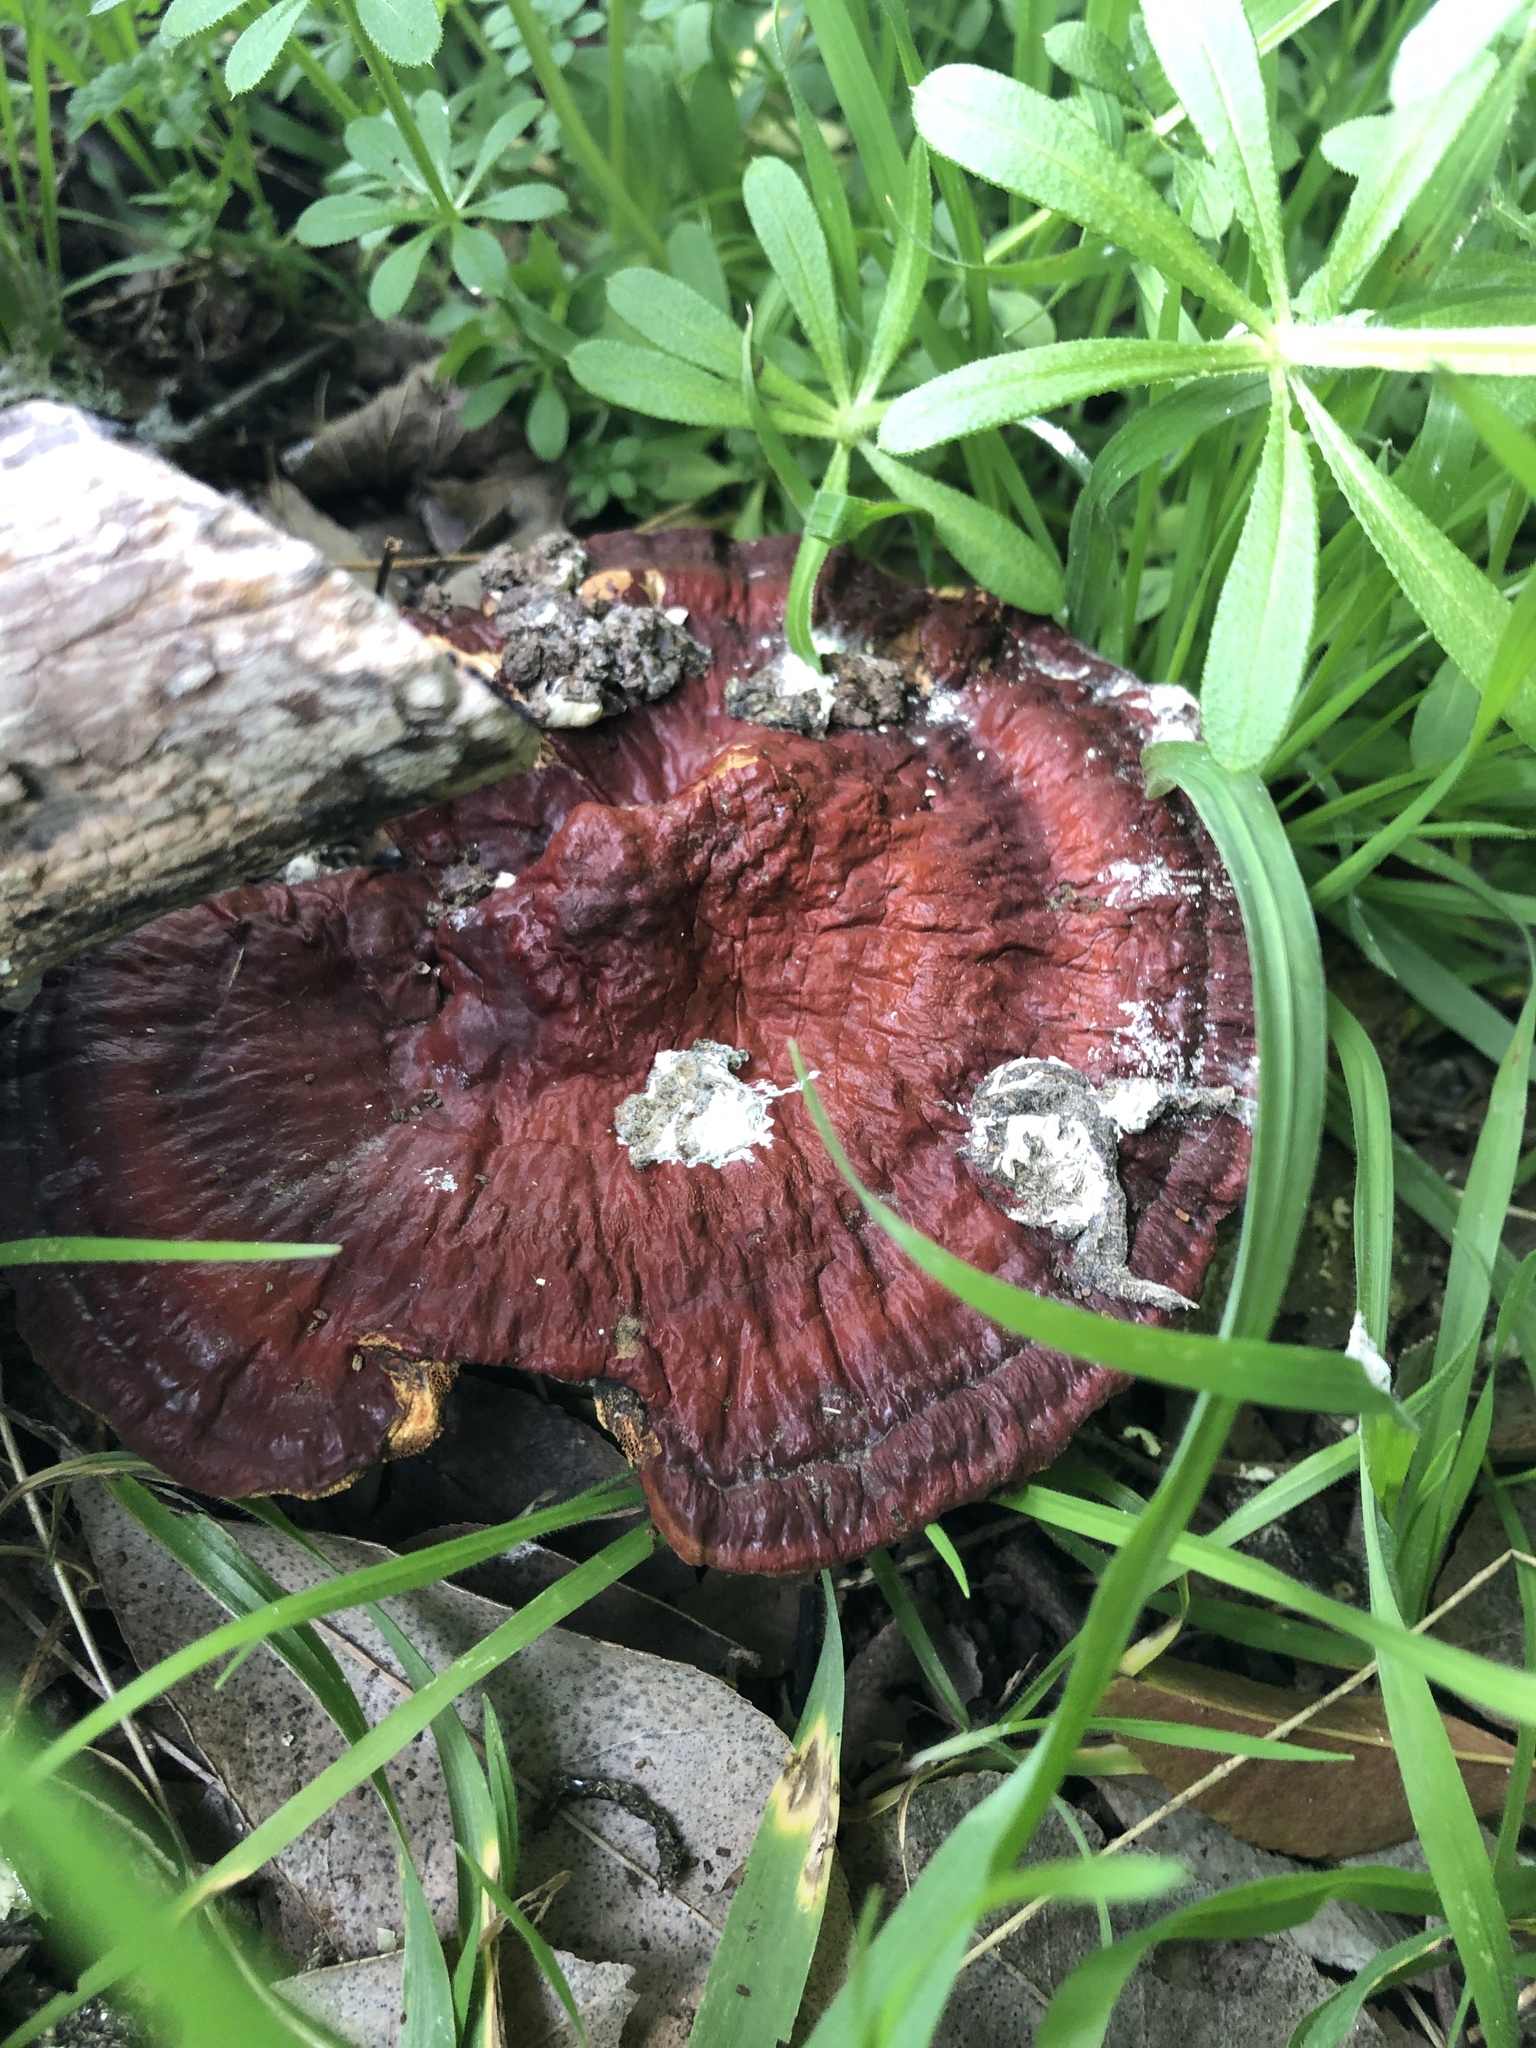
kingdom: Fungi
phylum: Basidiomycota
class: Agaricomycetes
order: Polyporales
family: Polyporaceae
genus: Ganoderma
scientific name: Ganoderma resinaceum
